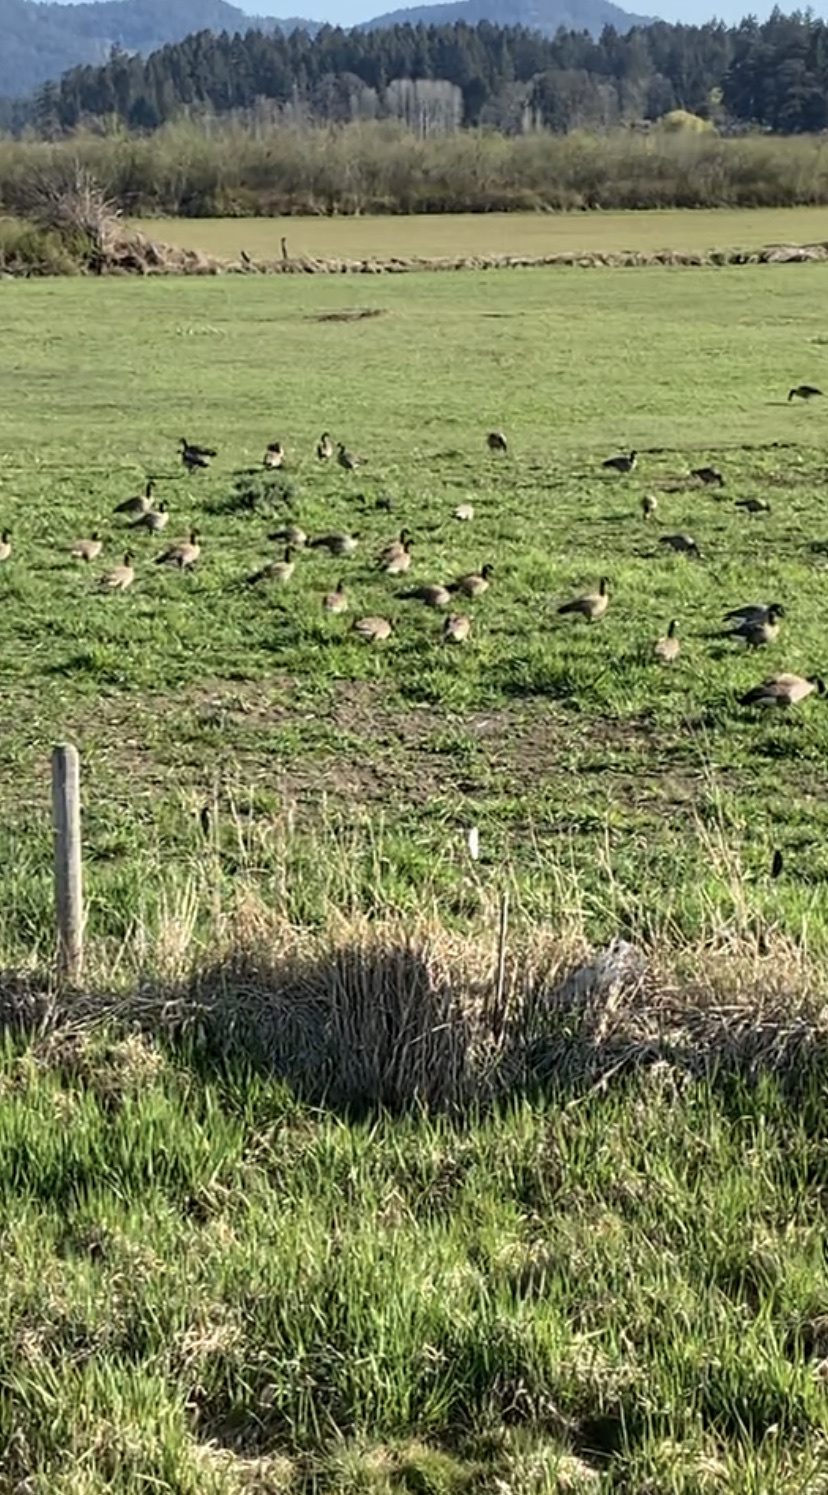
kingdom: Animalia
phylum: Chordata
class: Aves
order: Anseriformes
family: Anatidae
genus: Branta
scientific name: Branta canadensis
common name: Canada goose
